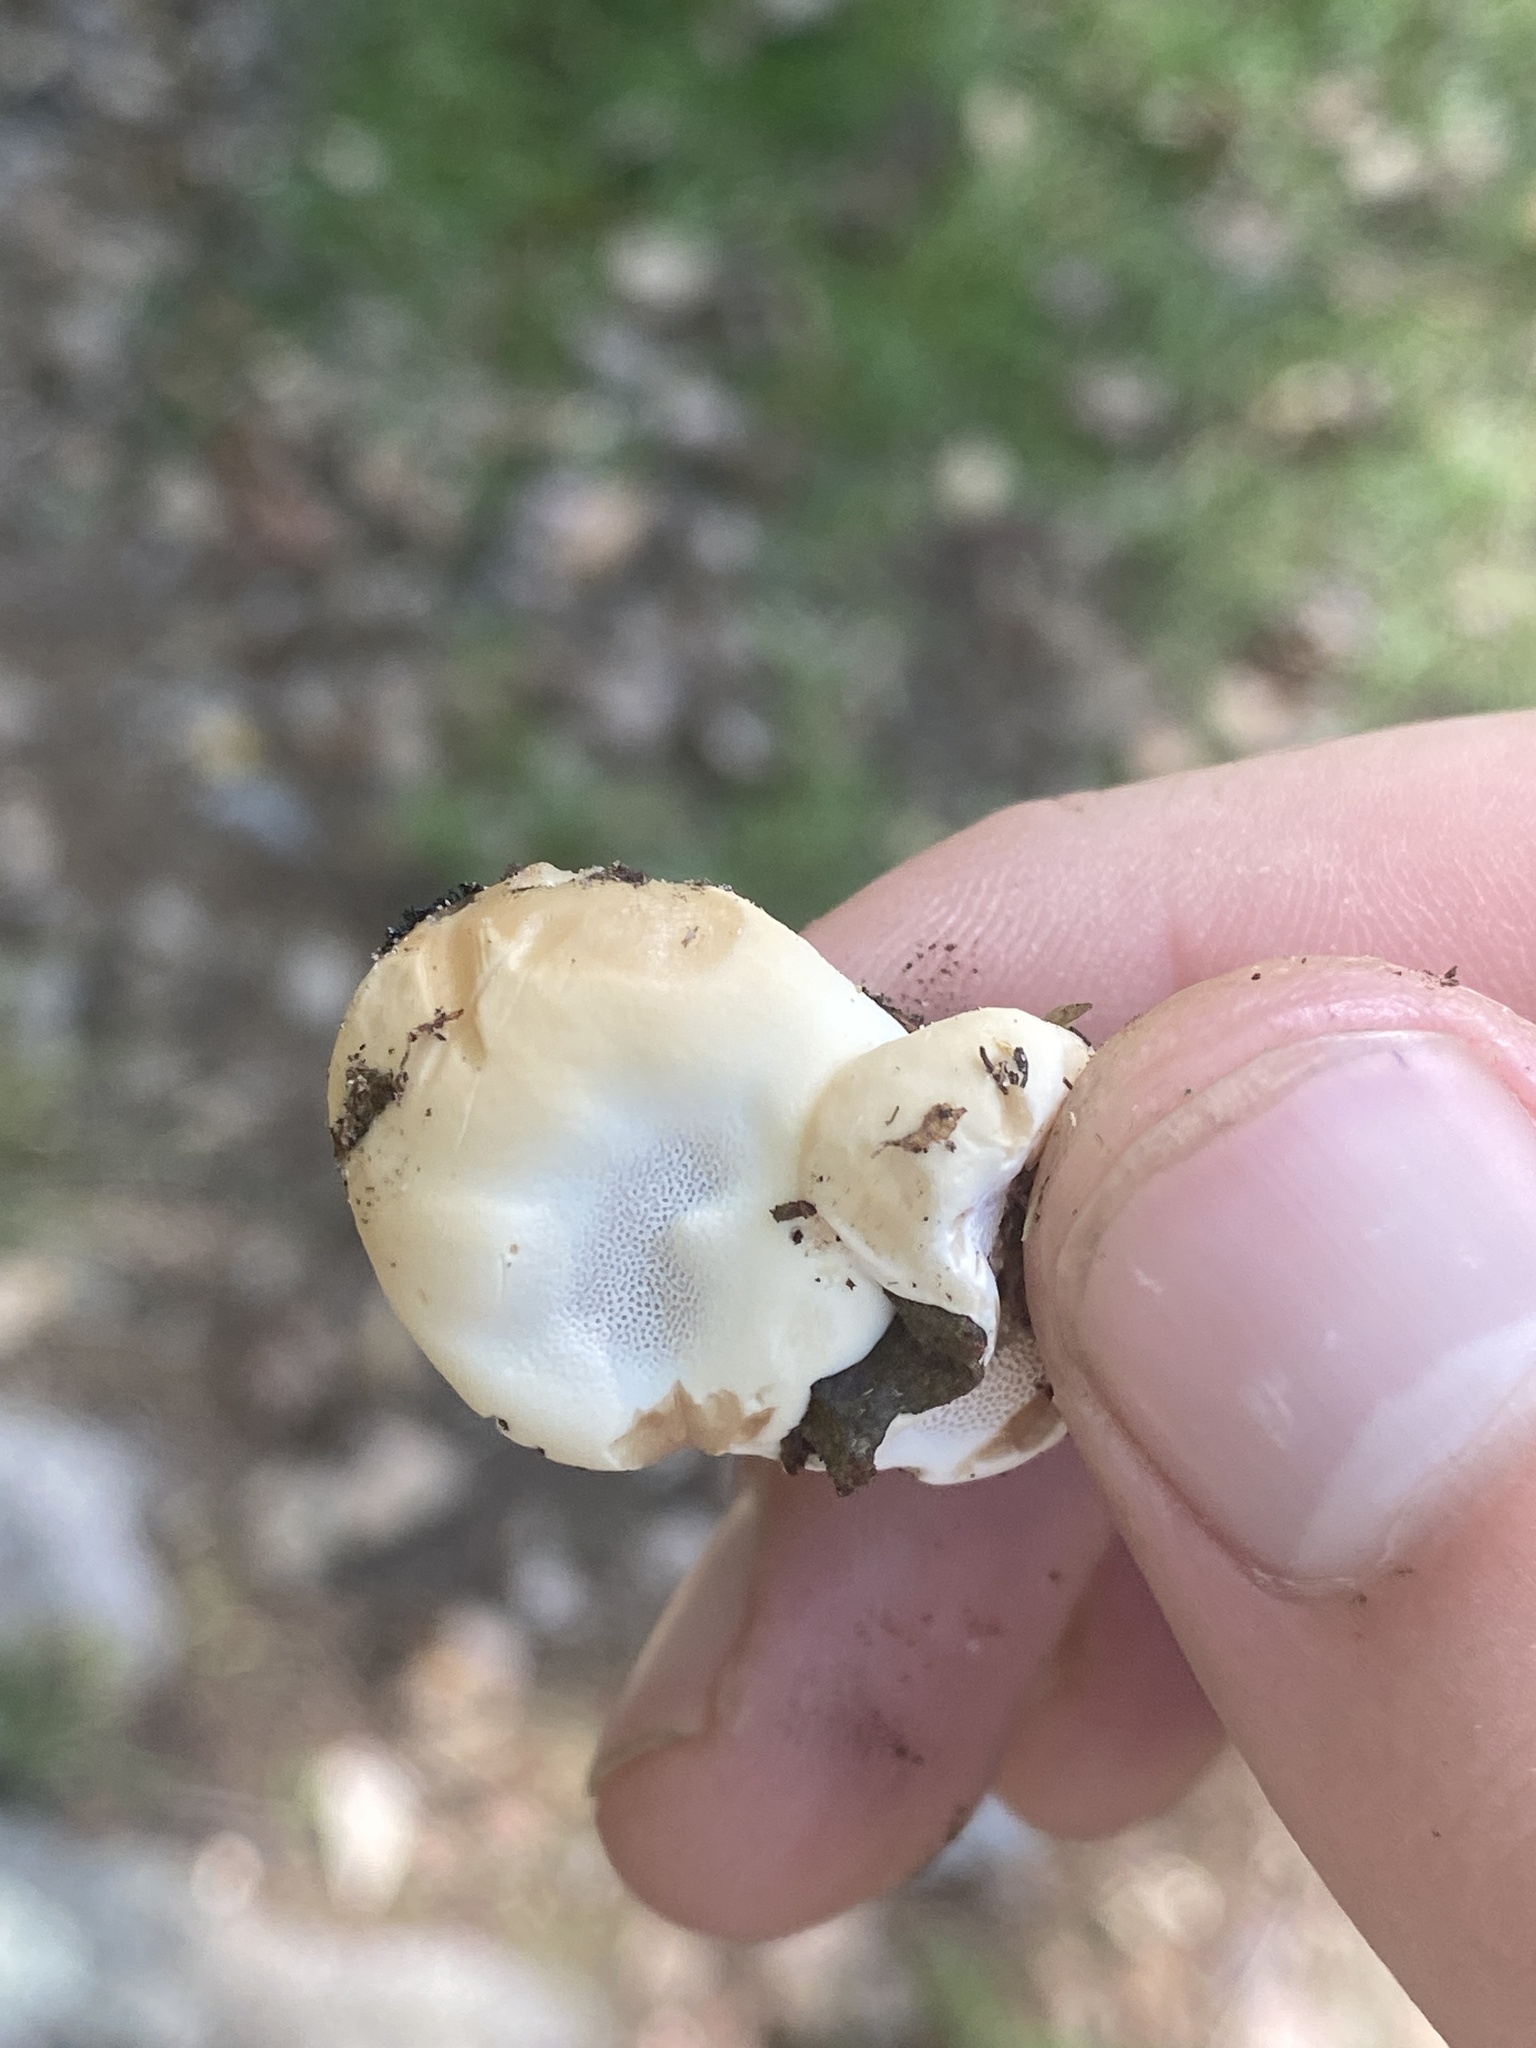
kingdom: Fungi
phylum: Ascomycota
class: Sordariomycetes
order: Hypocreales
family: Hypocreaceae
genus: Trichoderma
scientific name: Trichoderma peltatum
